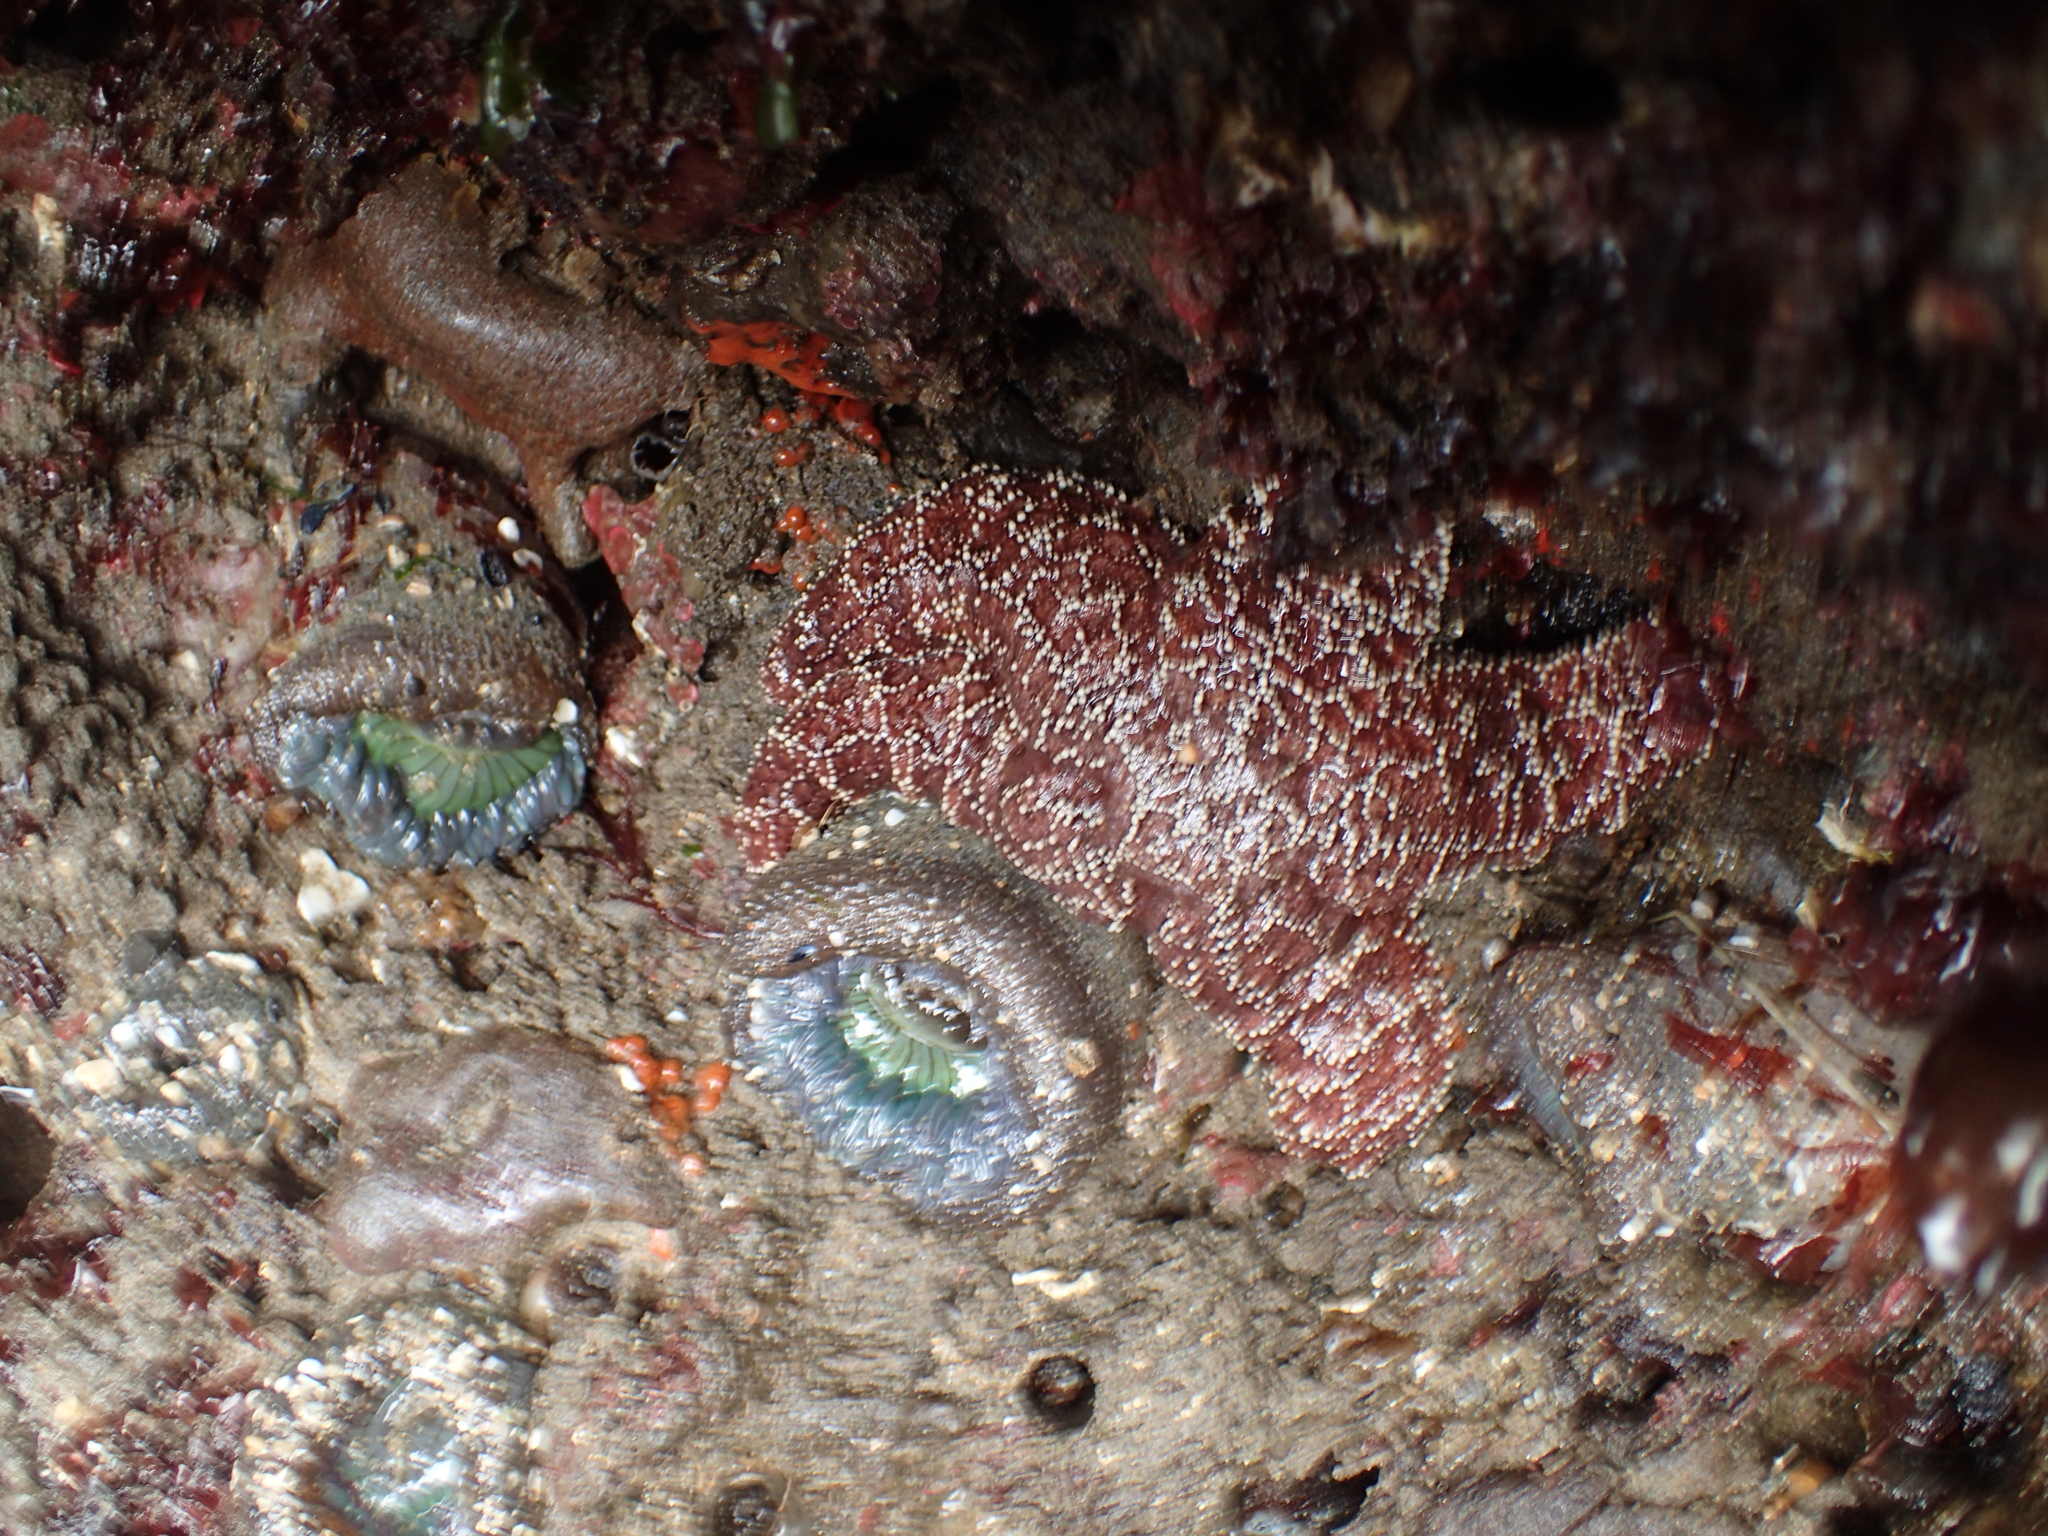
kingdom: Animalia
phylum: Echinodermata
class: Asteroidea
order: Forcipulatida
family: Asteriidae
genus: Pisaster
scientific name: Pisaster ochraceus
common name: Ochre stars
